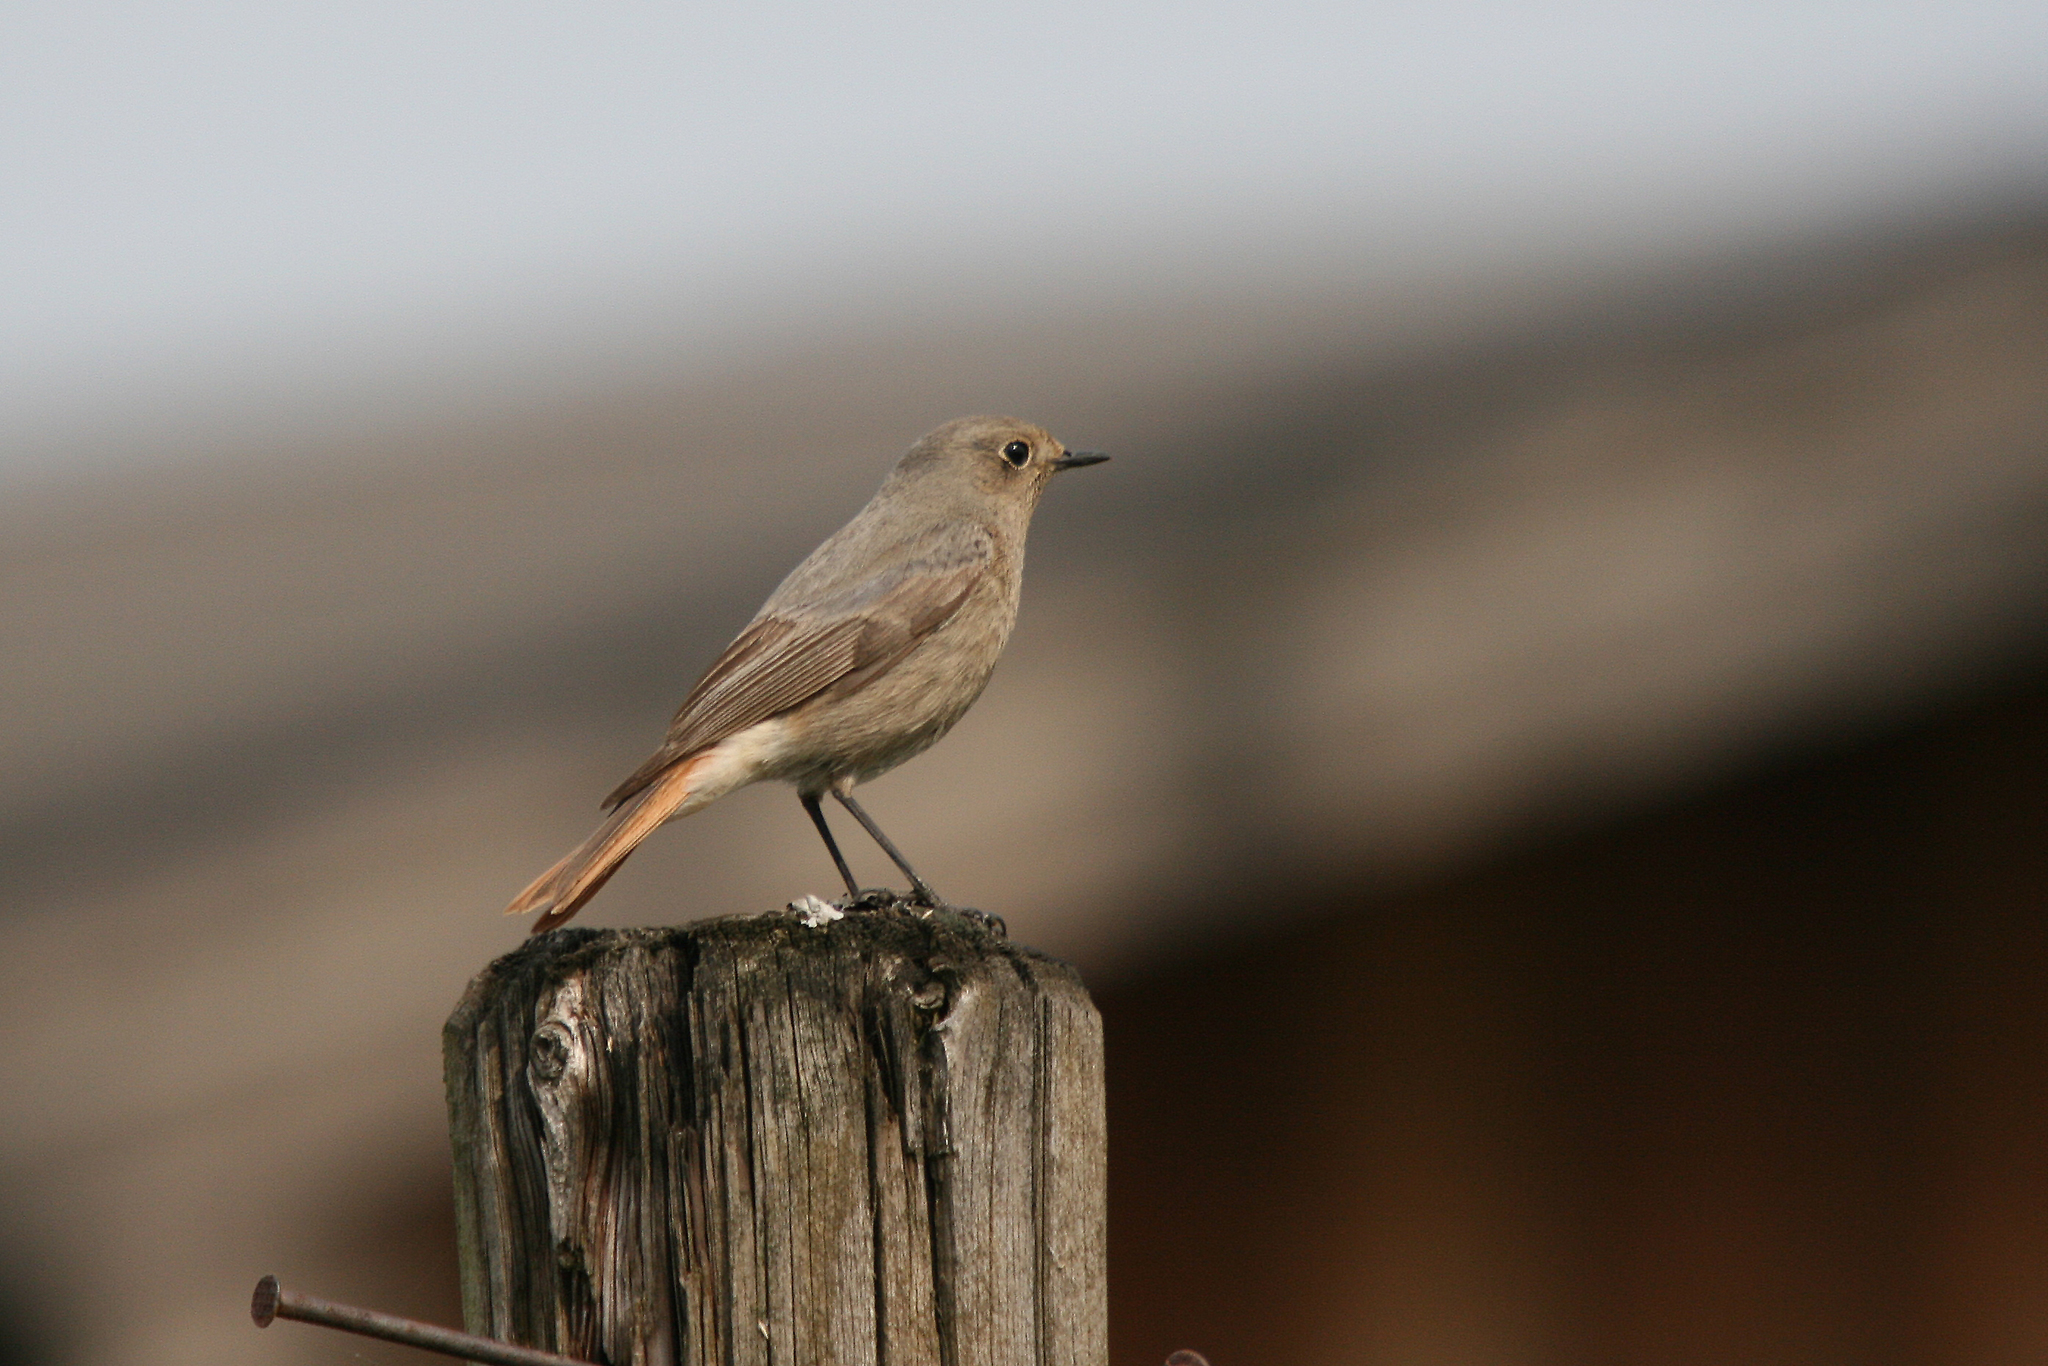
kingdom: Animalia
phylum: Chordata
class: Aves
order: Passeriformes
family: Muscicapidae
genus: Phoenicurus
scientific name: Phoenicurus ochruros
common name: Black redstart
